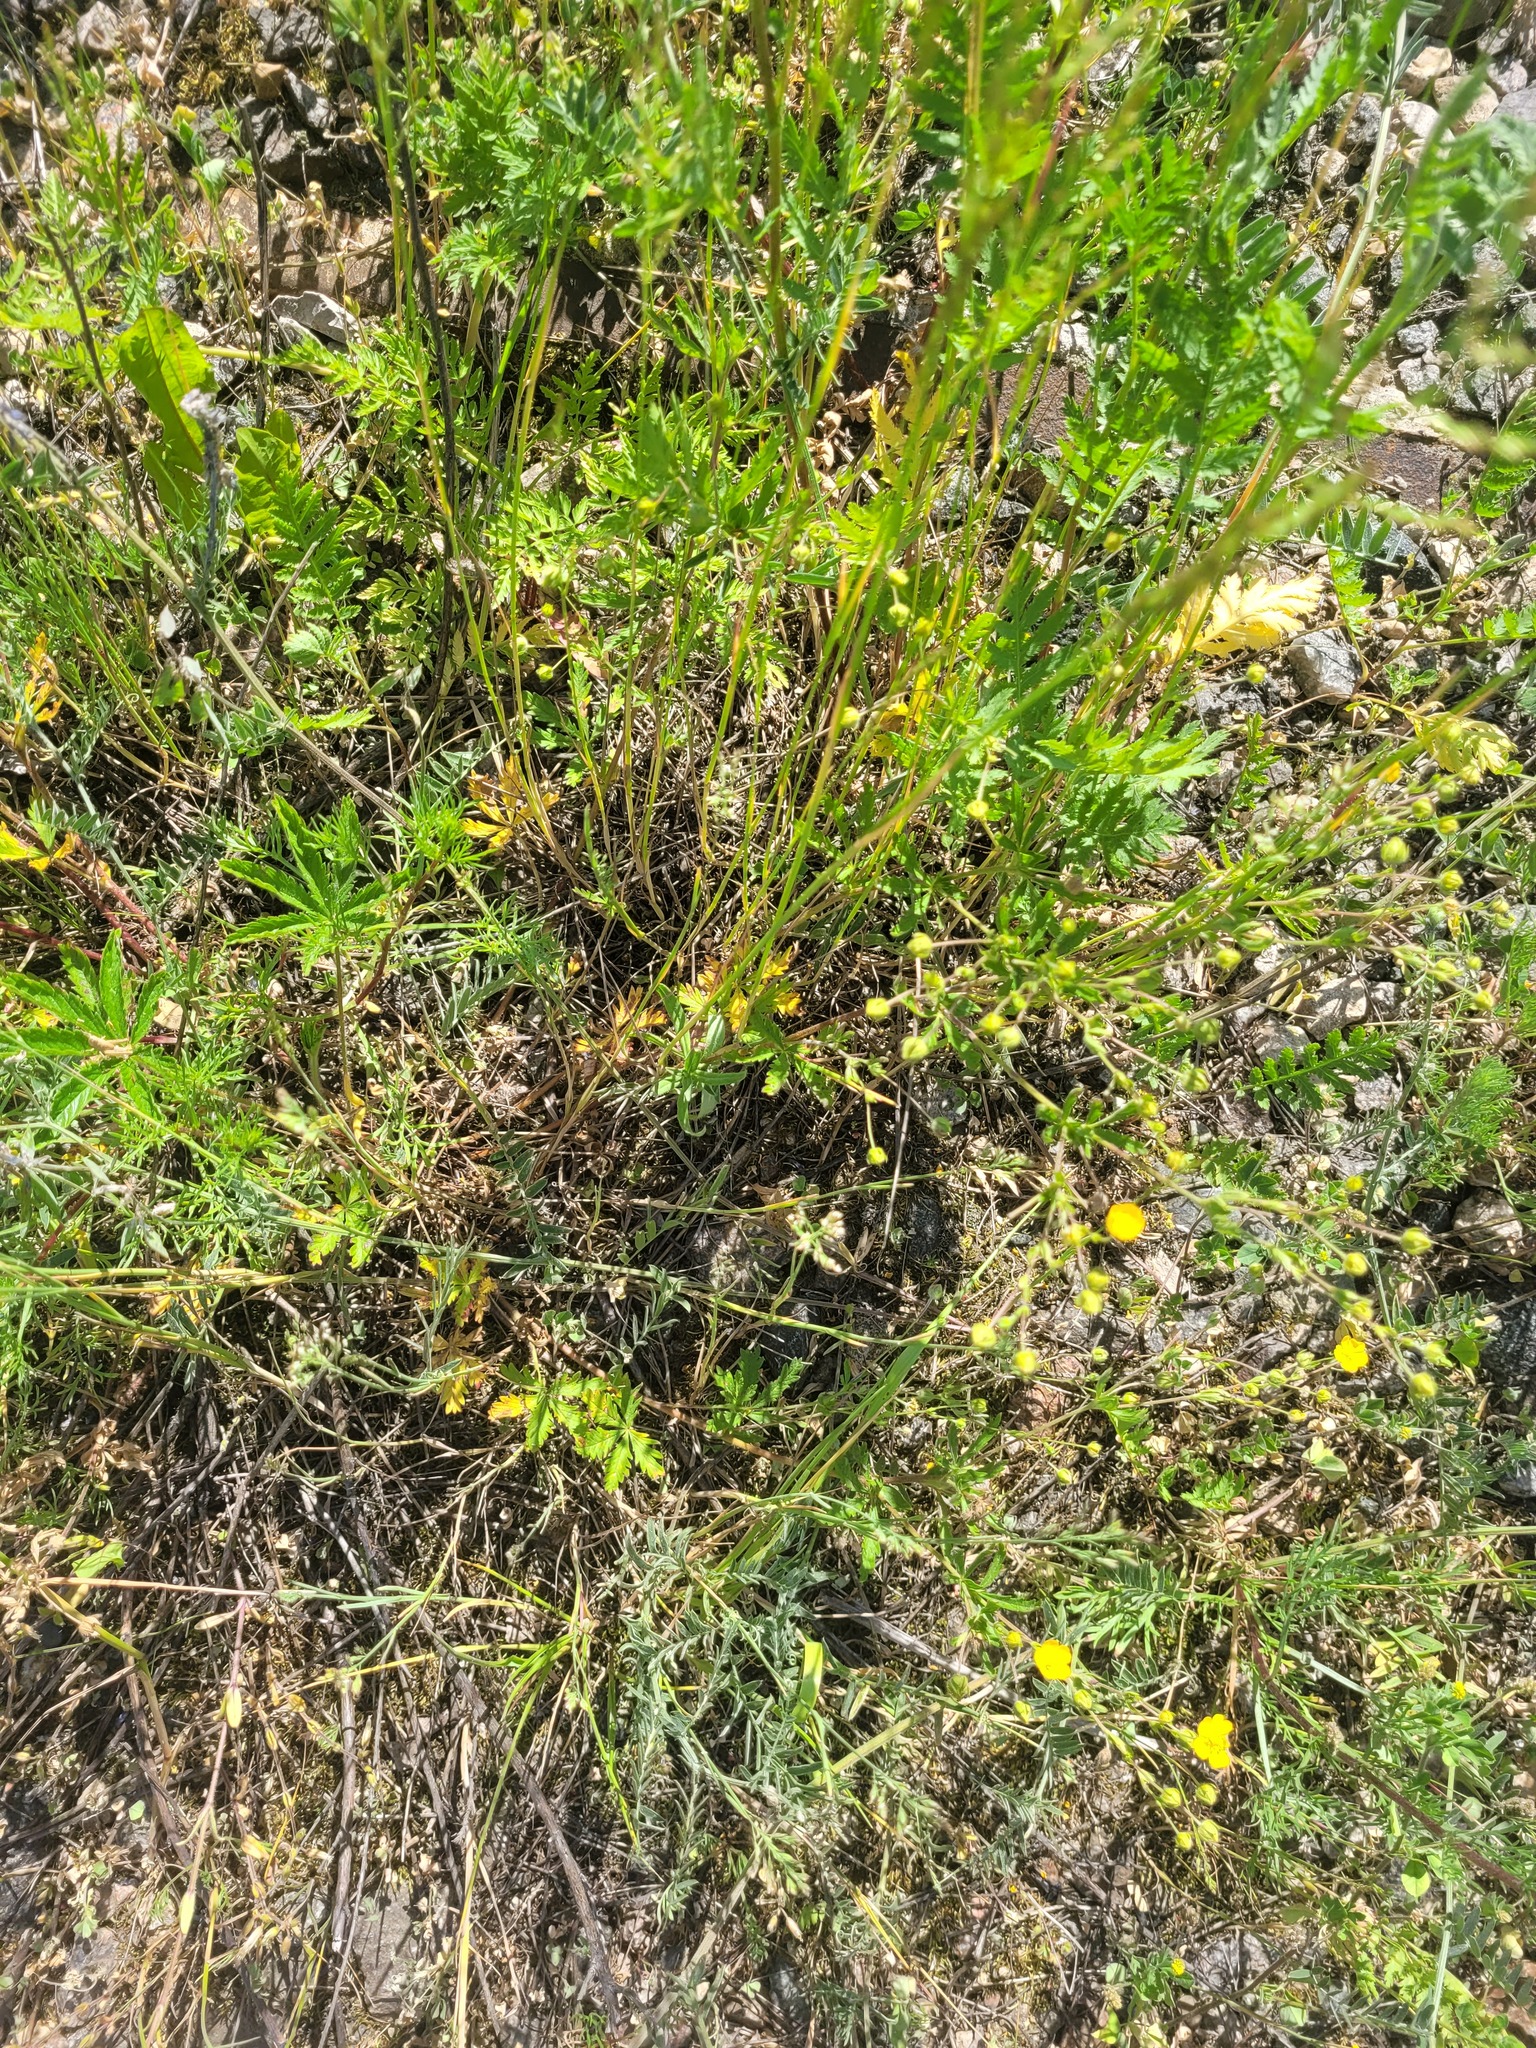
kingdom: Plantae
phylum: Tracheophyta
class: Magnoliopsida
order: Rosales
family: Rosaceae
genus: Potentilla
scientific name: Potentilla thuringiaca
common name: European cinquefoil
